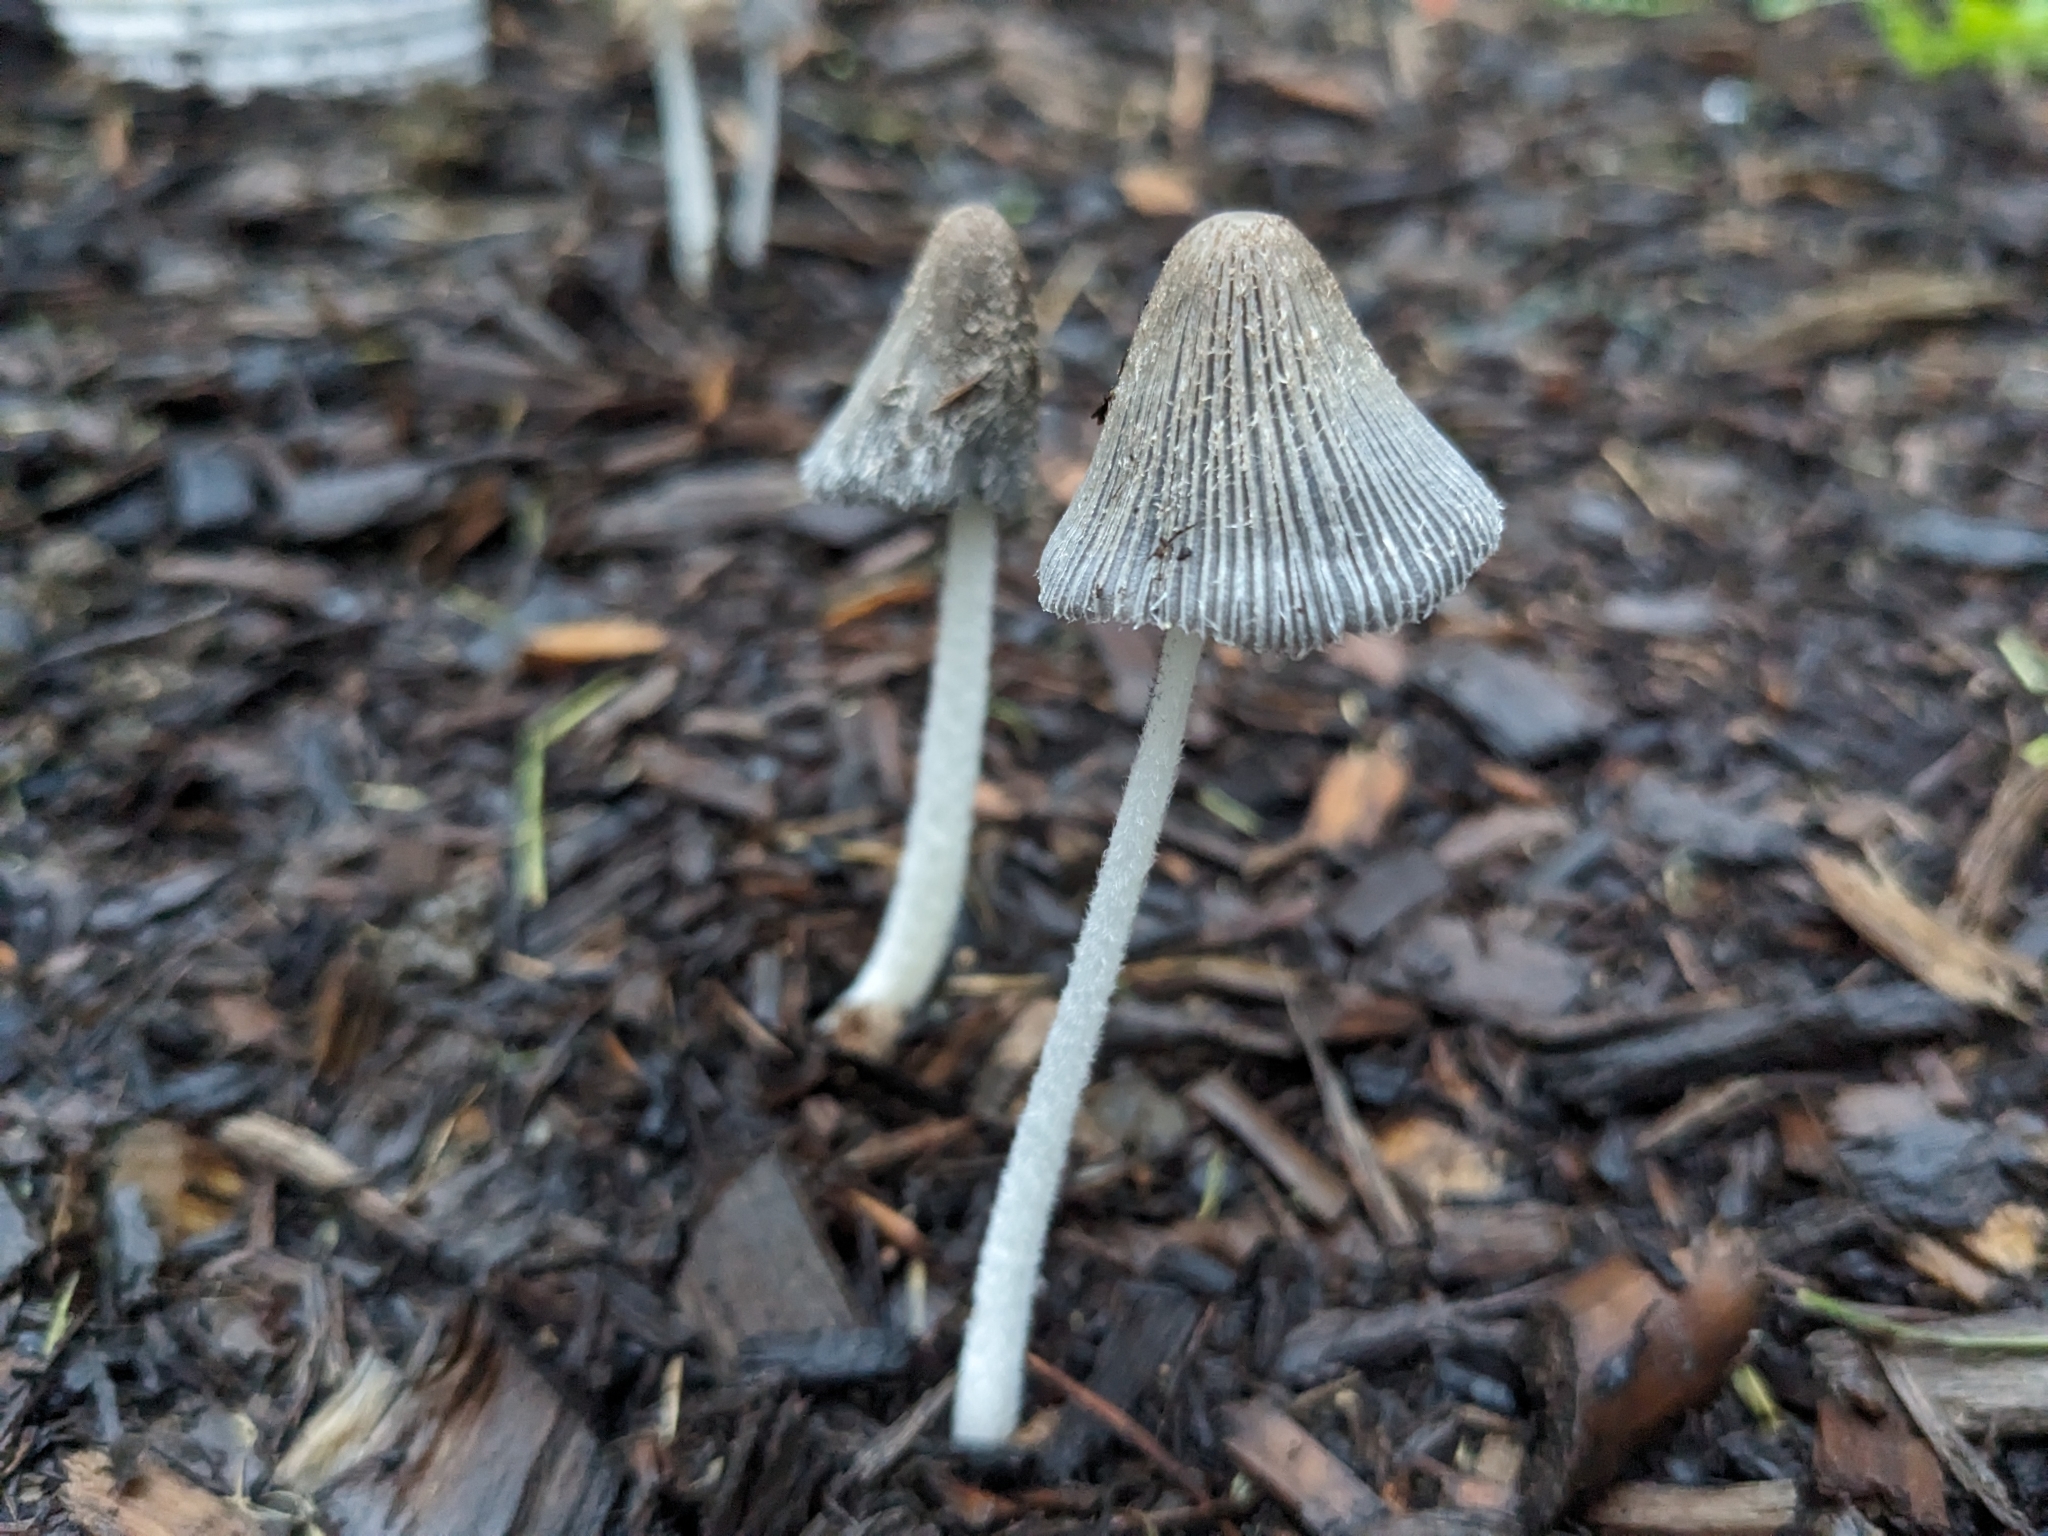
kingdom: Fungi
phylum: Basidiomycota
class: Agaricomycetes
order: Agaricales
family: Psathyrellaceae
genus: Coprinopsis
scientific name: Coprinopsis lagopus
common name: Hare'sfoot inkcap
